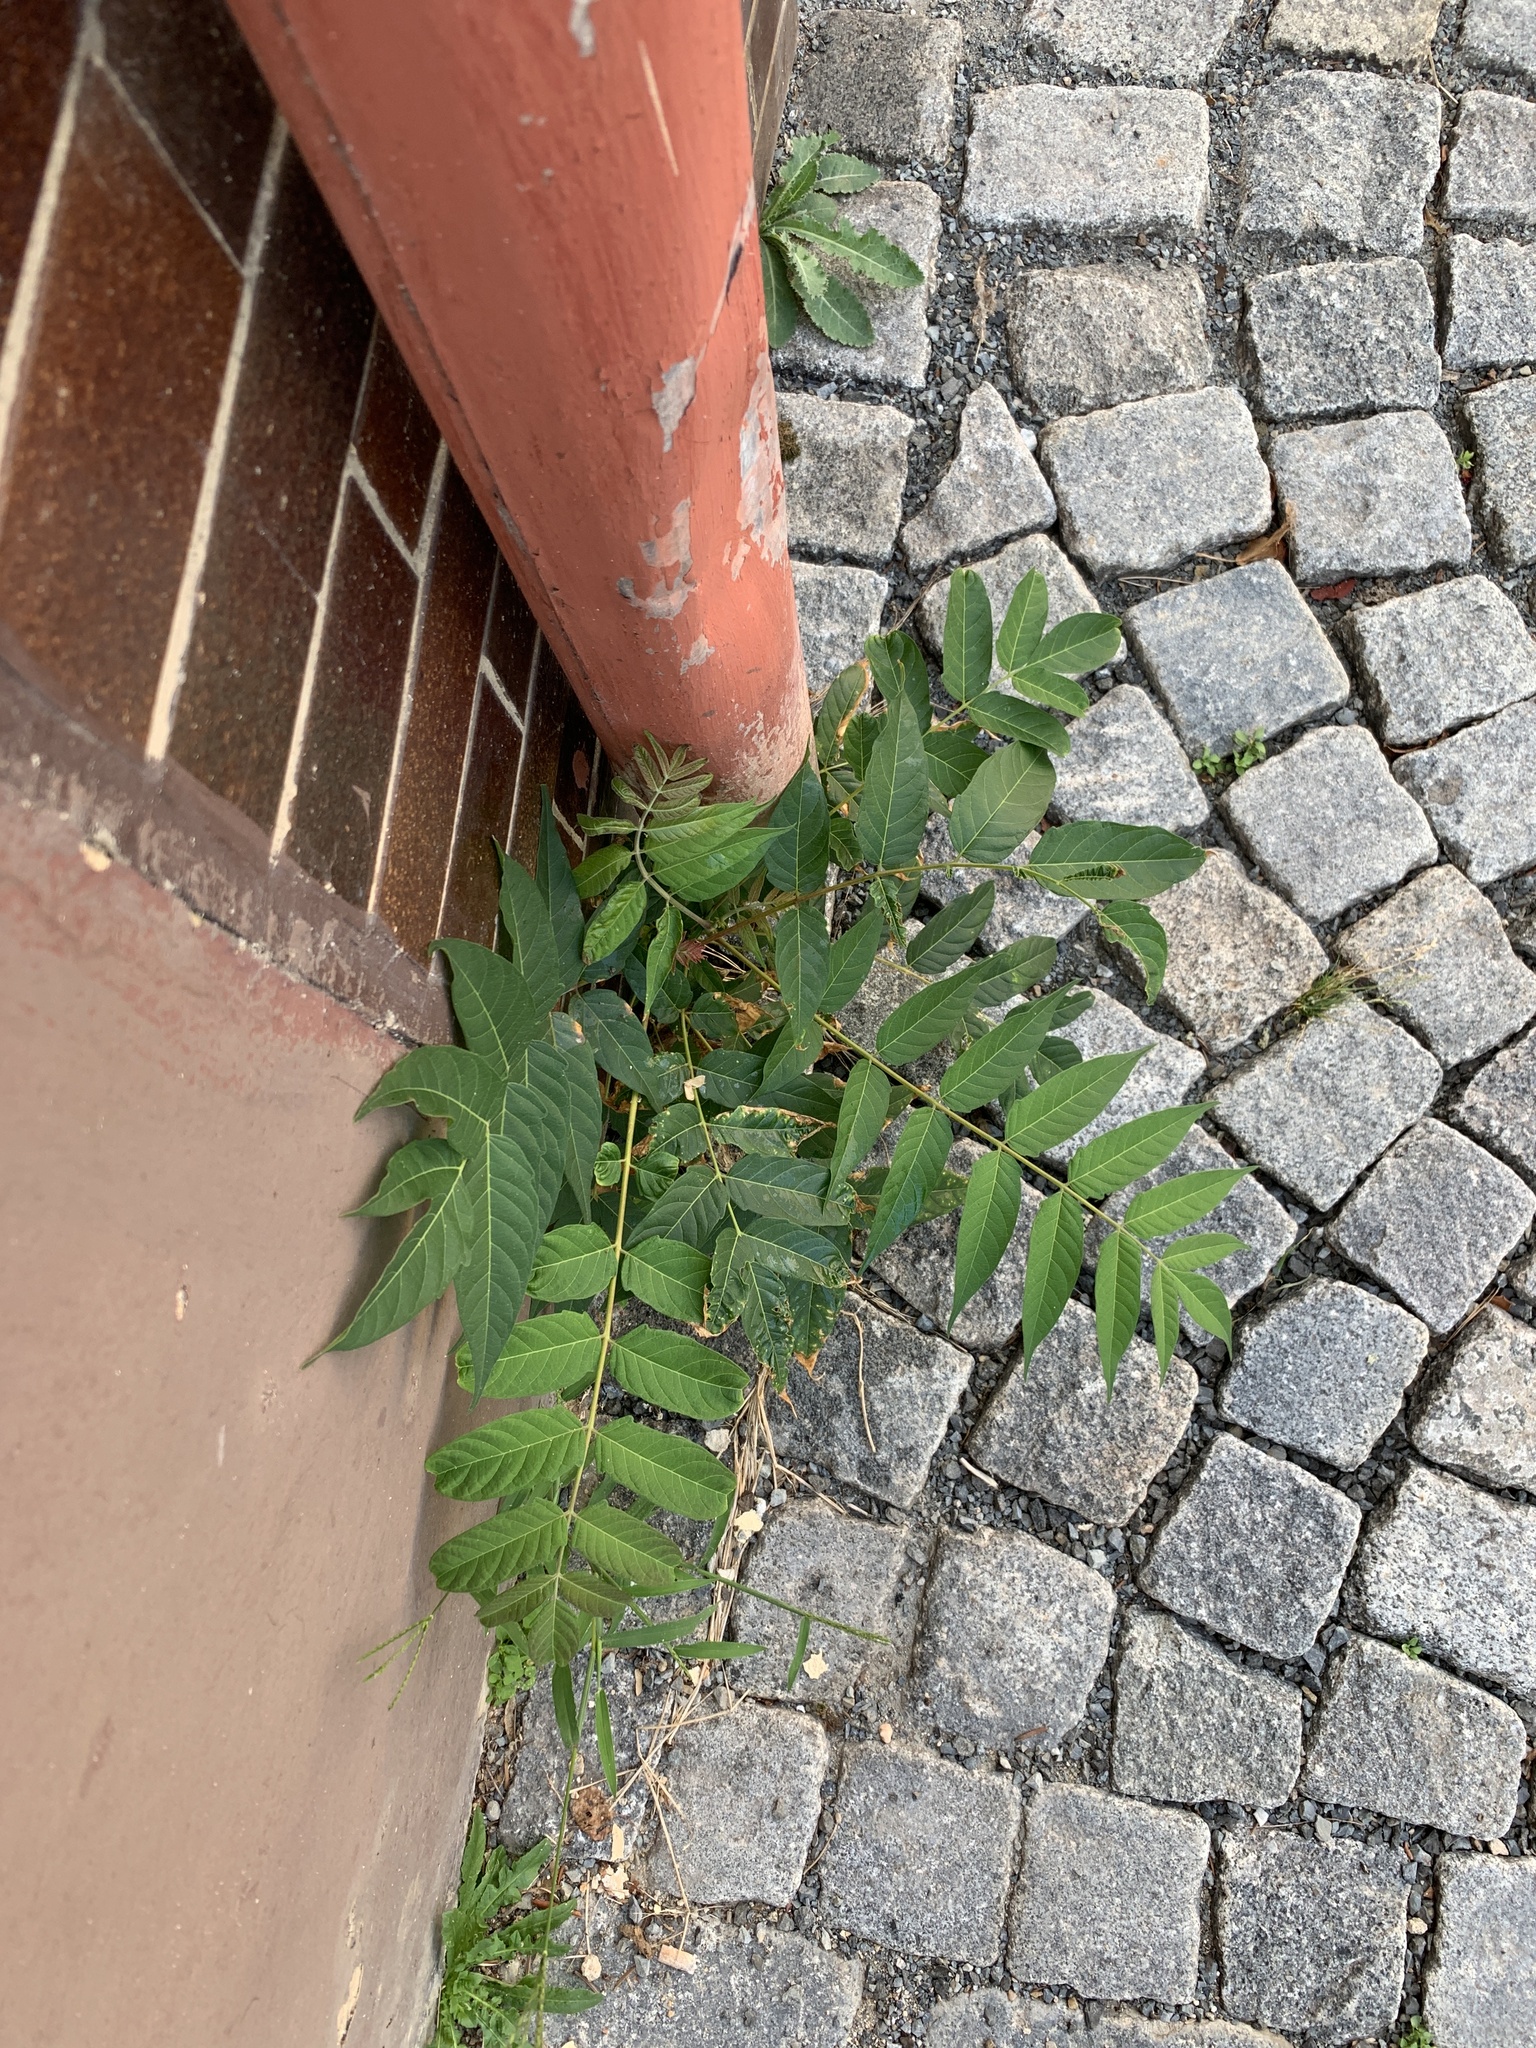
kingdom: Plantae
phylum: Tracheophyta
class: Magnoliopsida
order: Sapindales
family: Simaroubaceae
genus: Ailanthus
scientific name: Ailanthus altissima
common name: Tree-of-heaven
